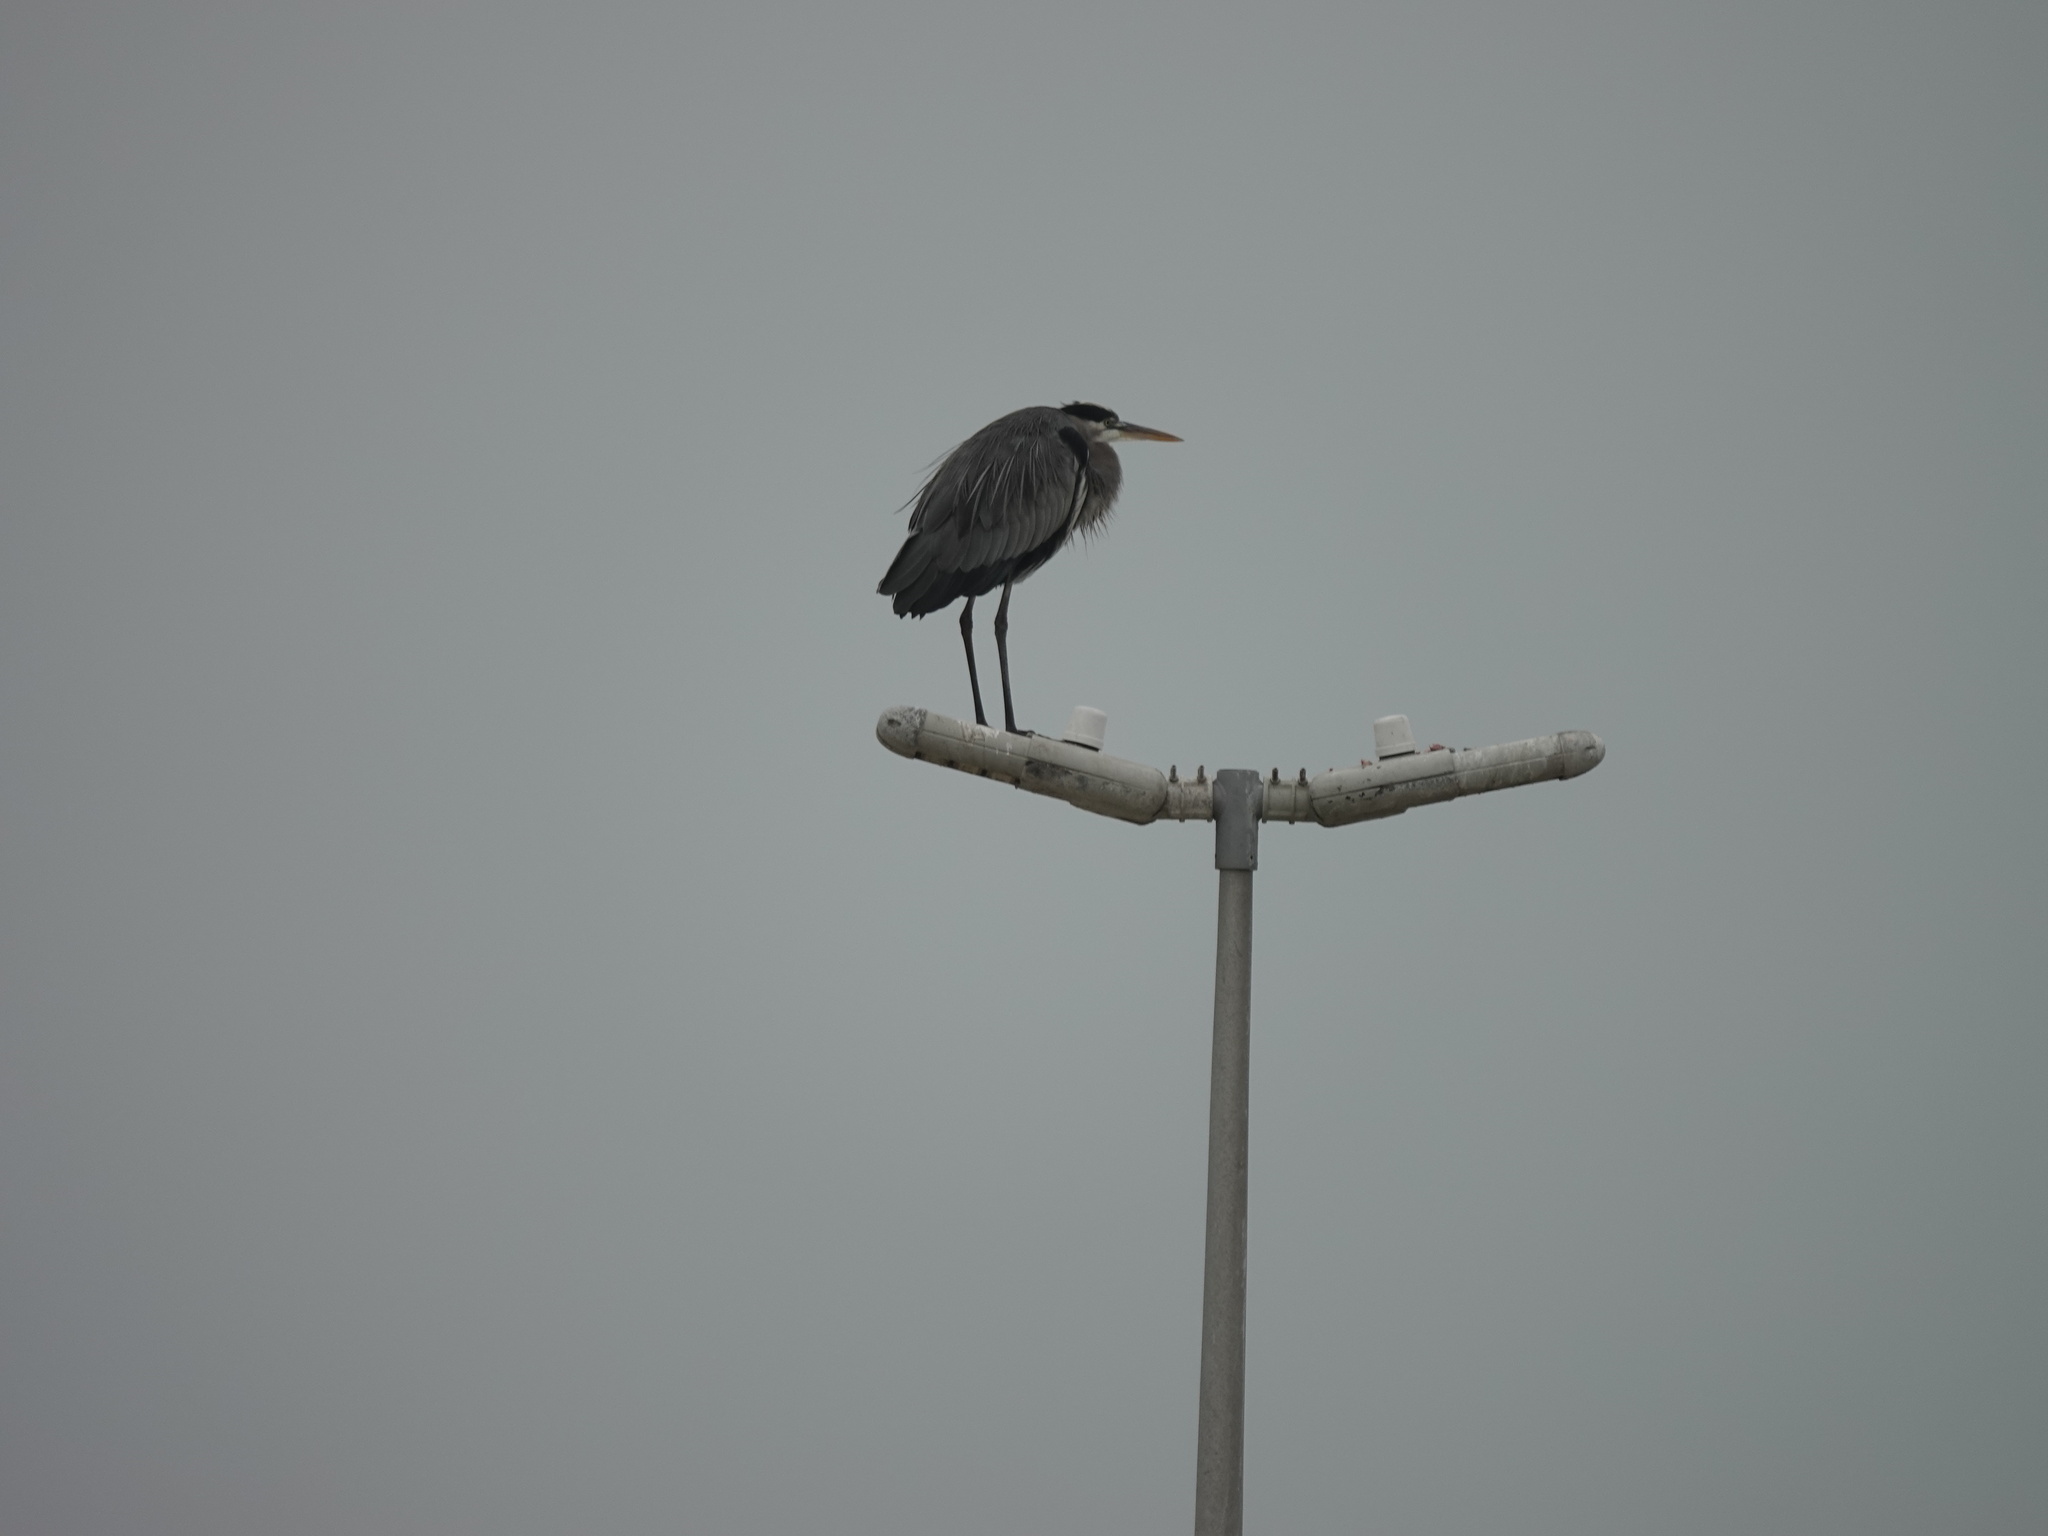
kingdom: Animalia
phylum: Chordata
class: Aves
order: Pelecaniformes
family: Ardeidae
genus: Ardea
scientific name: Ardea herodias
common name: Great blue heron
